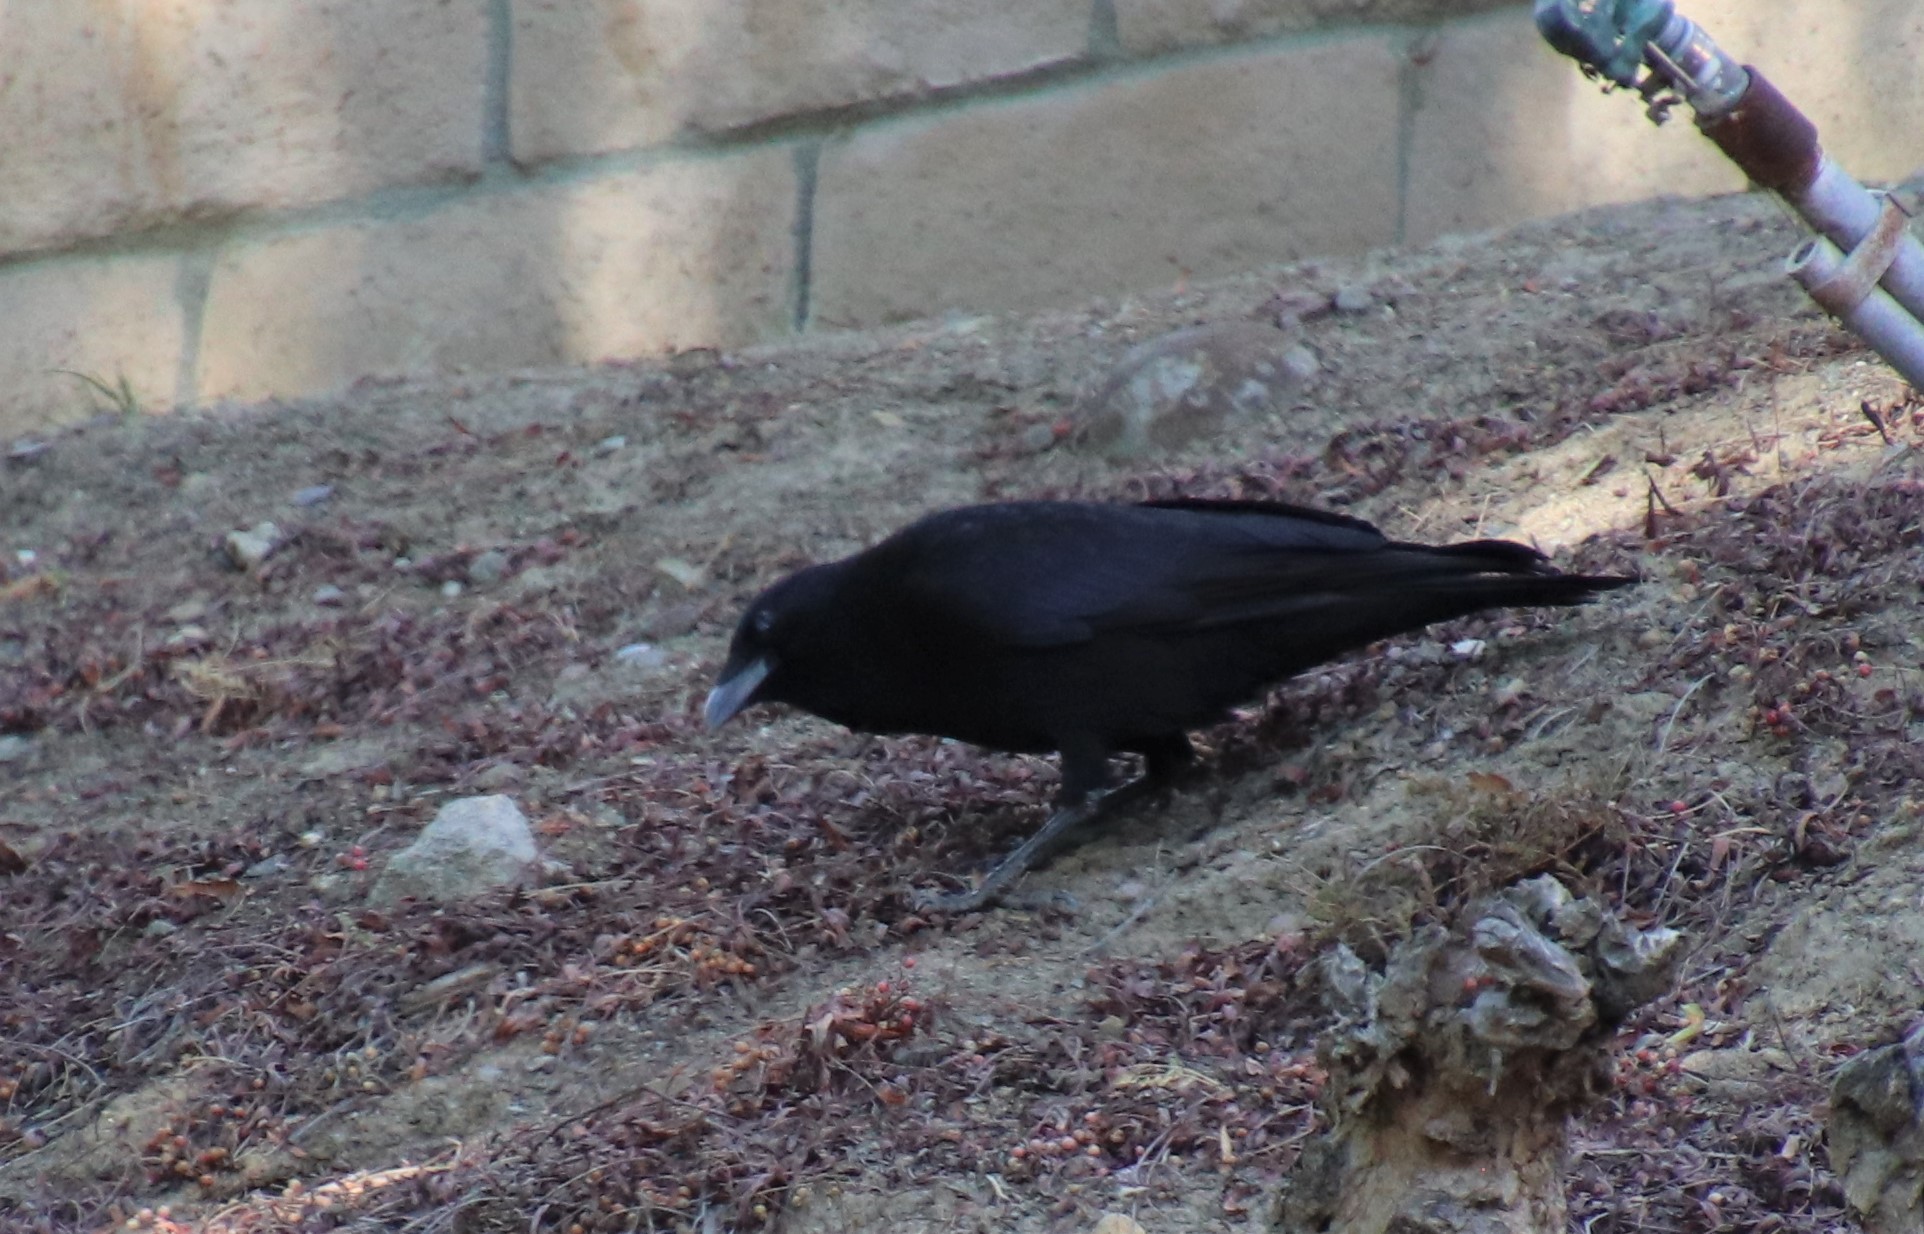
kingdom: Animalia
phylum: Chordata
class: Aves
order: Passeriformes
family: Corvidae
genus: Corvus
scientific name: Corvus brachyrhynchos
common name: American crow
